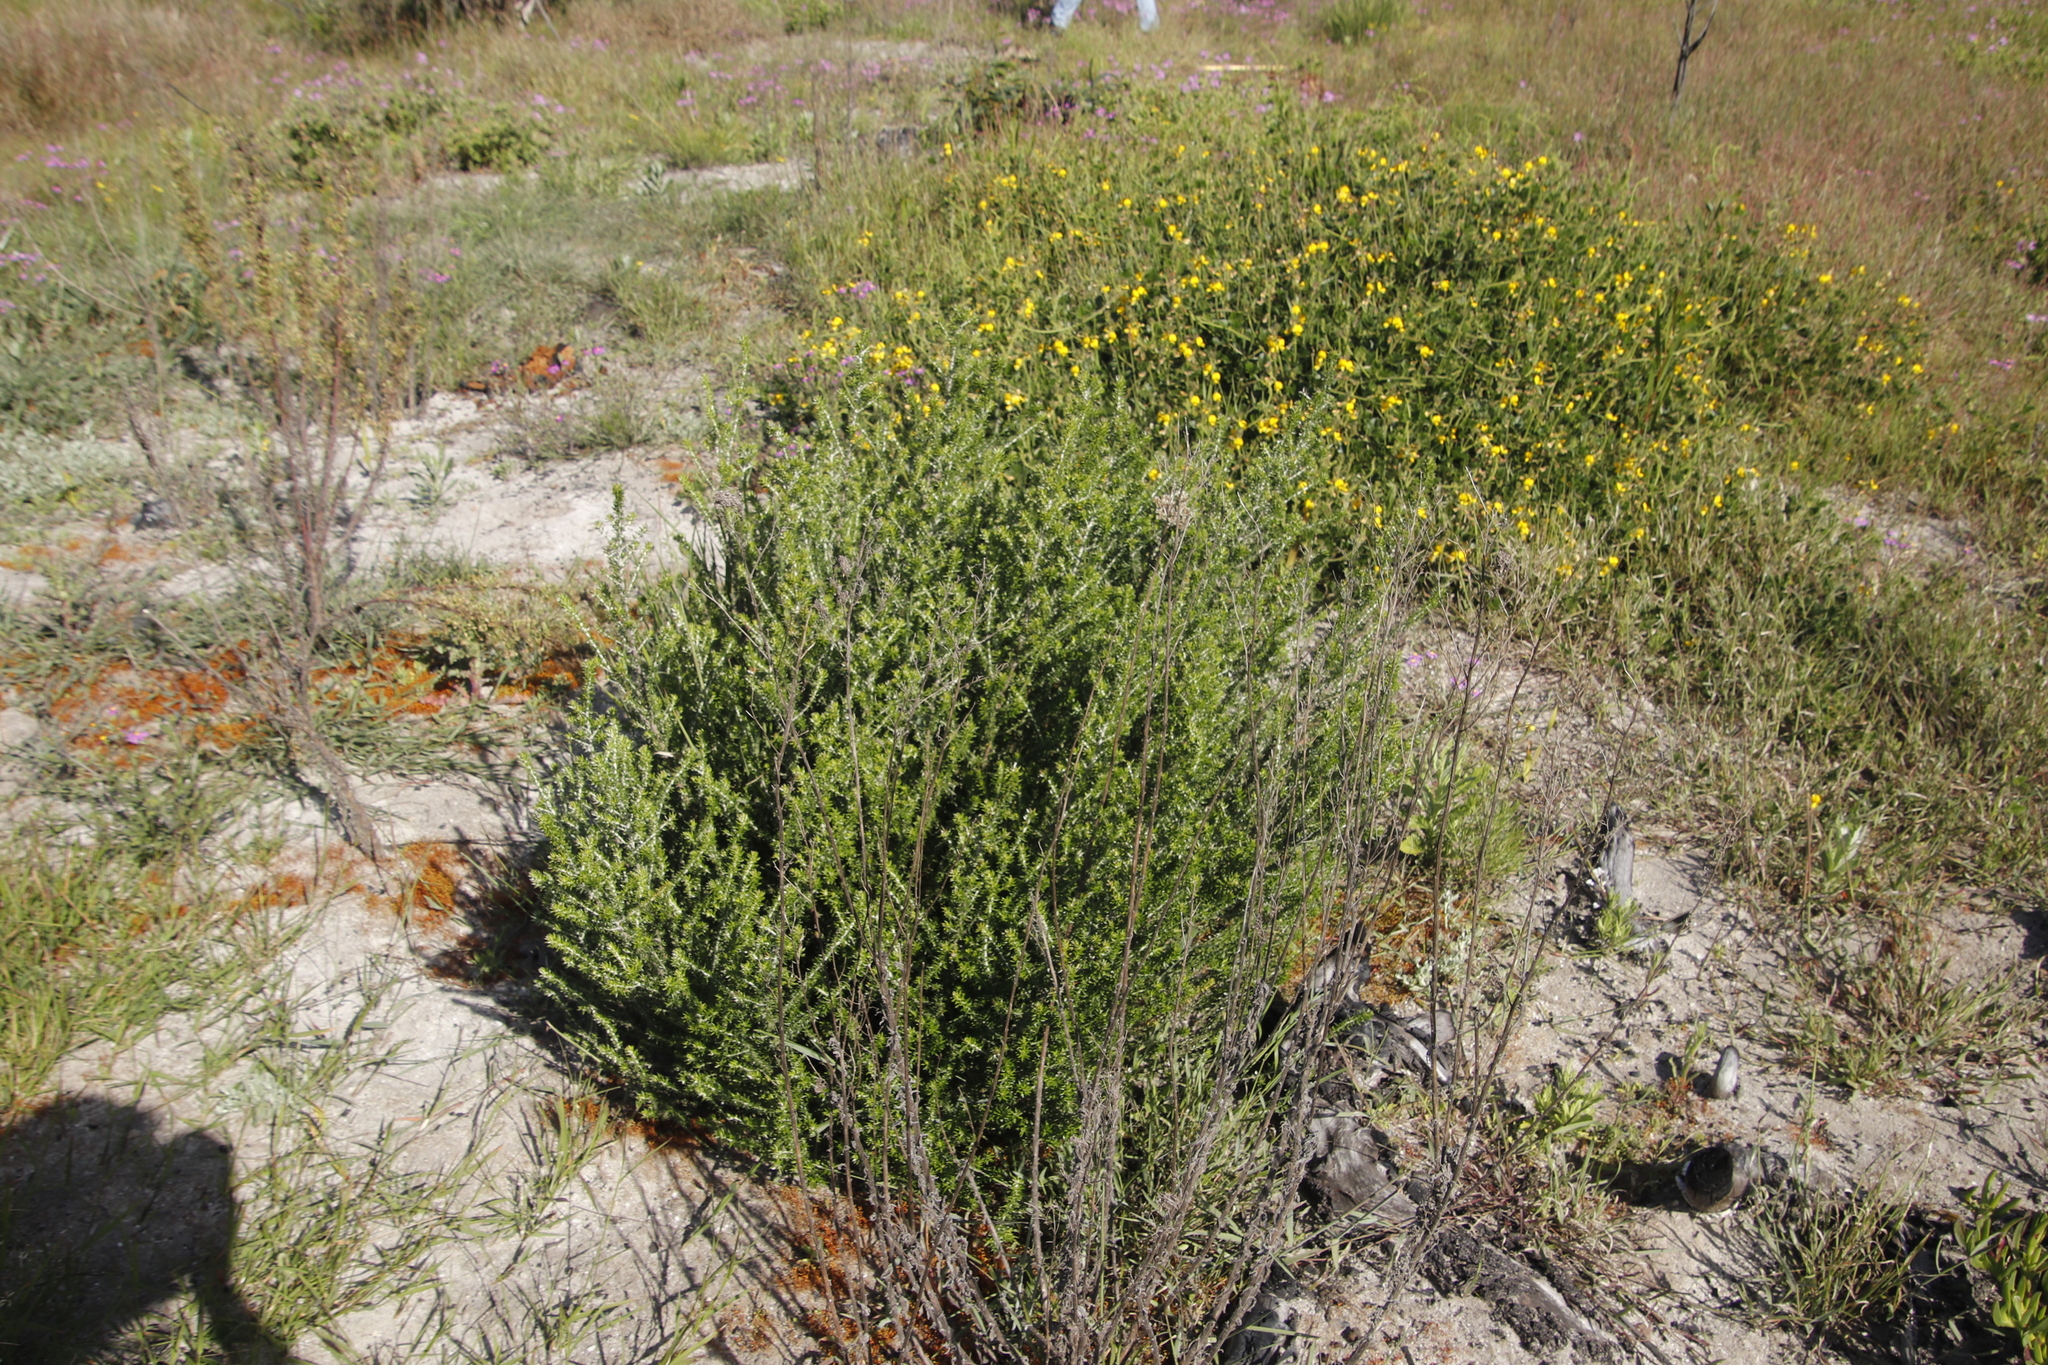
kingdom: Plantae
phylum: Tracheophyta
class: Magnoliopsida
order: Asterales
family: Asteraceae
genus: Metalasia
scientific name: Metalasia densa
